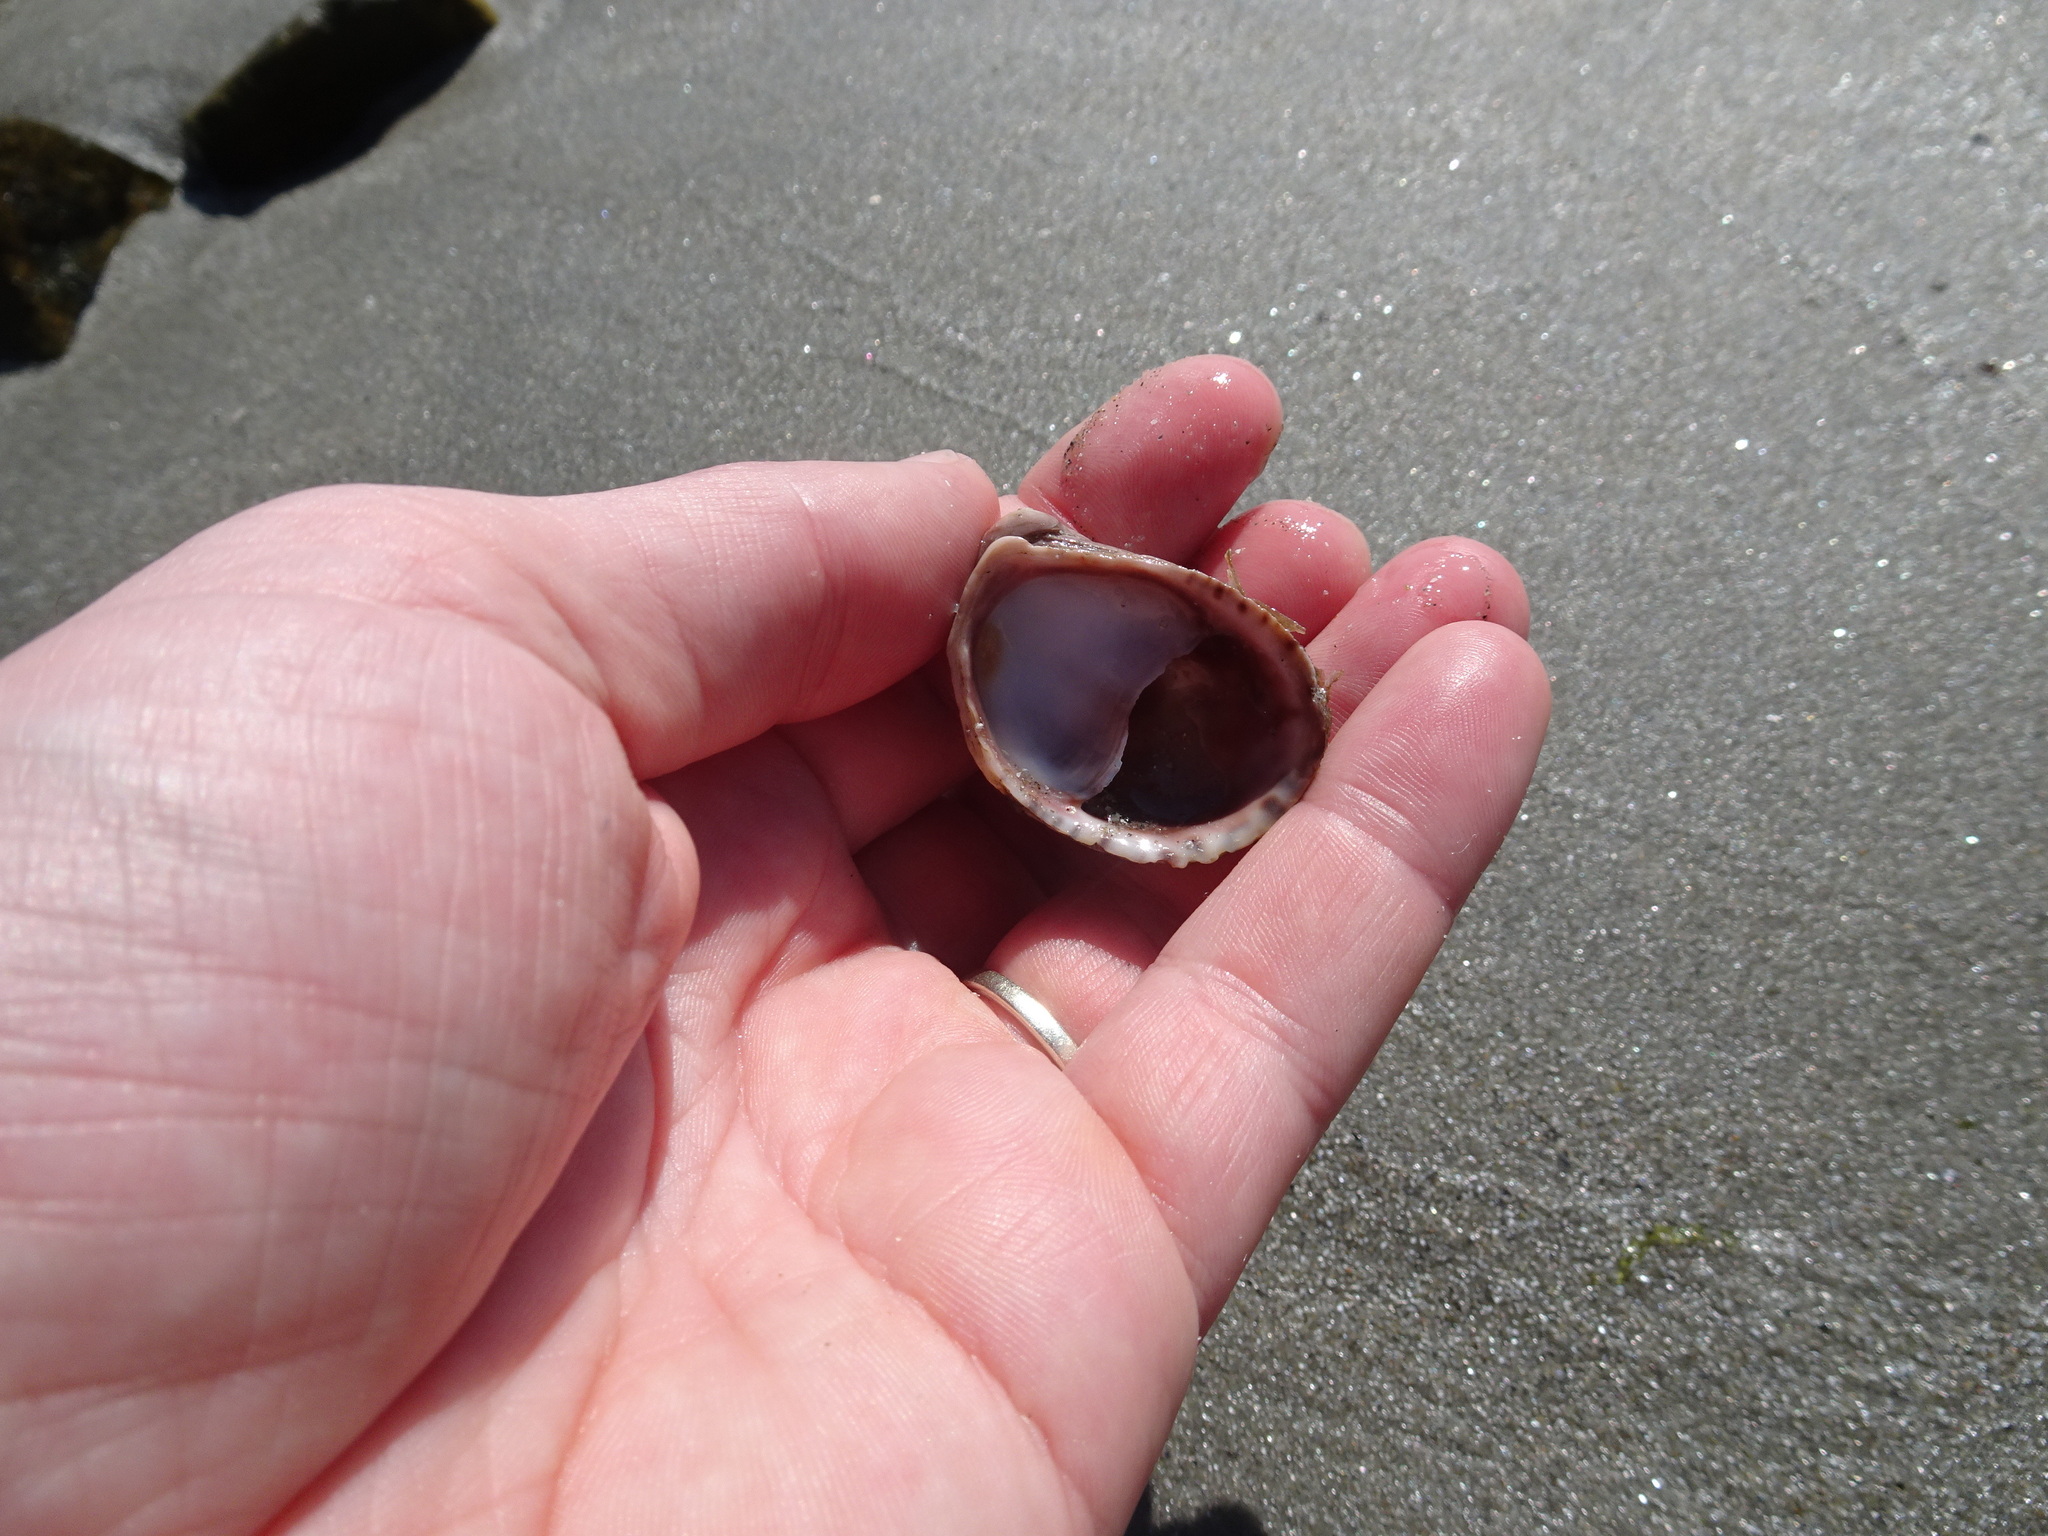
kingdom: Animalia
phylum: Mollusca
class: Gastropoda
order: Littorinimorpha
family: Calyptraeidae
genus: Crepidula
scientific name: Crepidula fornicata
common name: Slipper limpet
